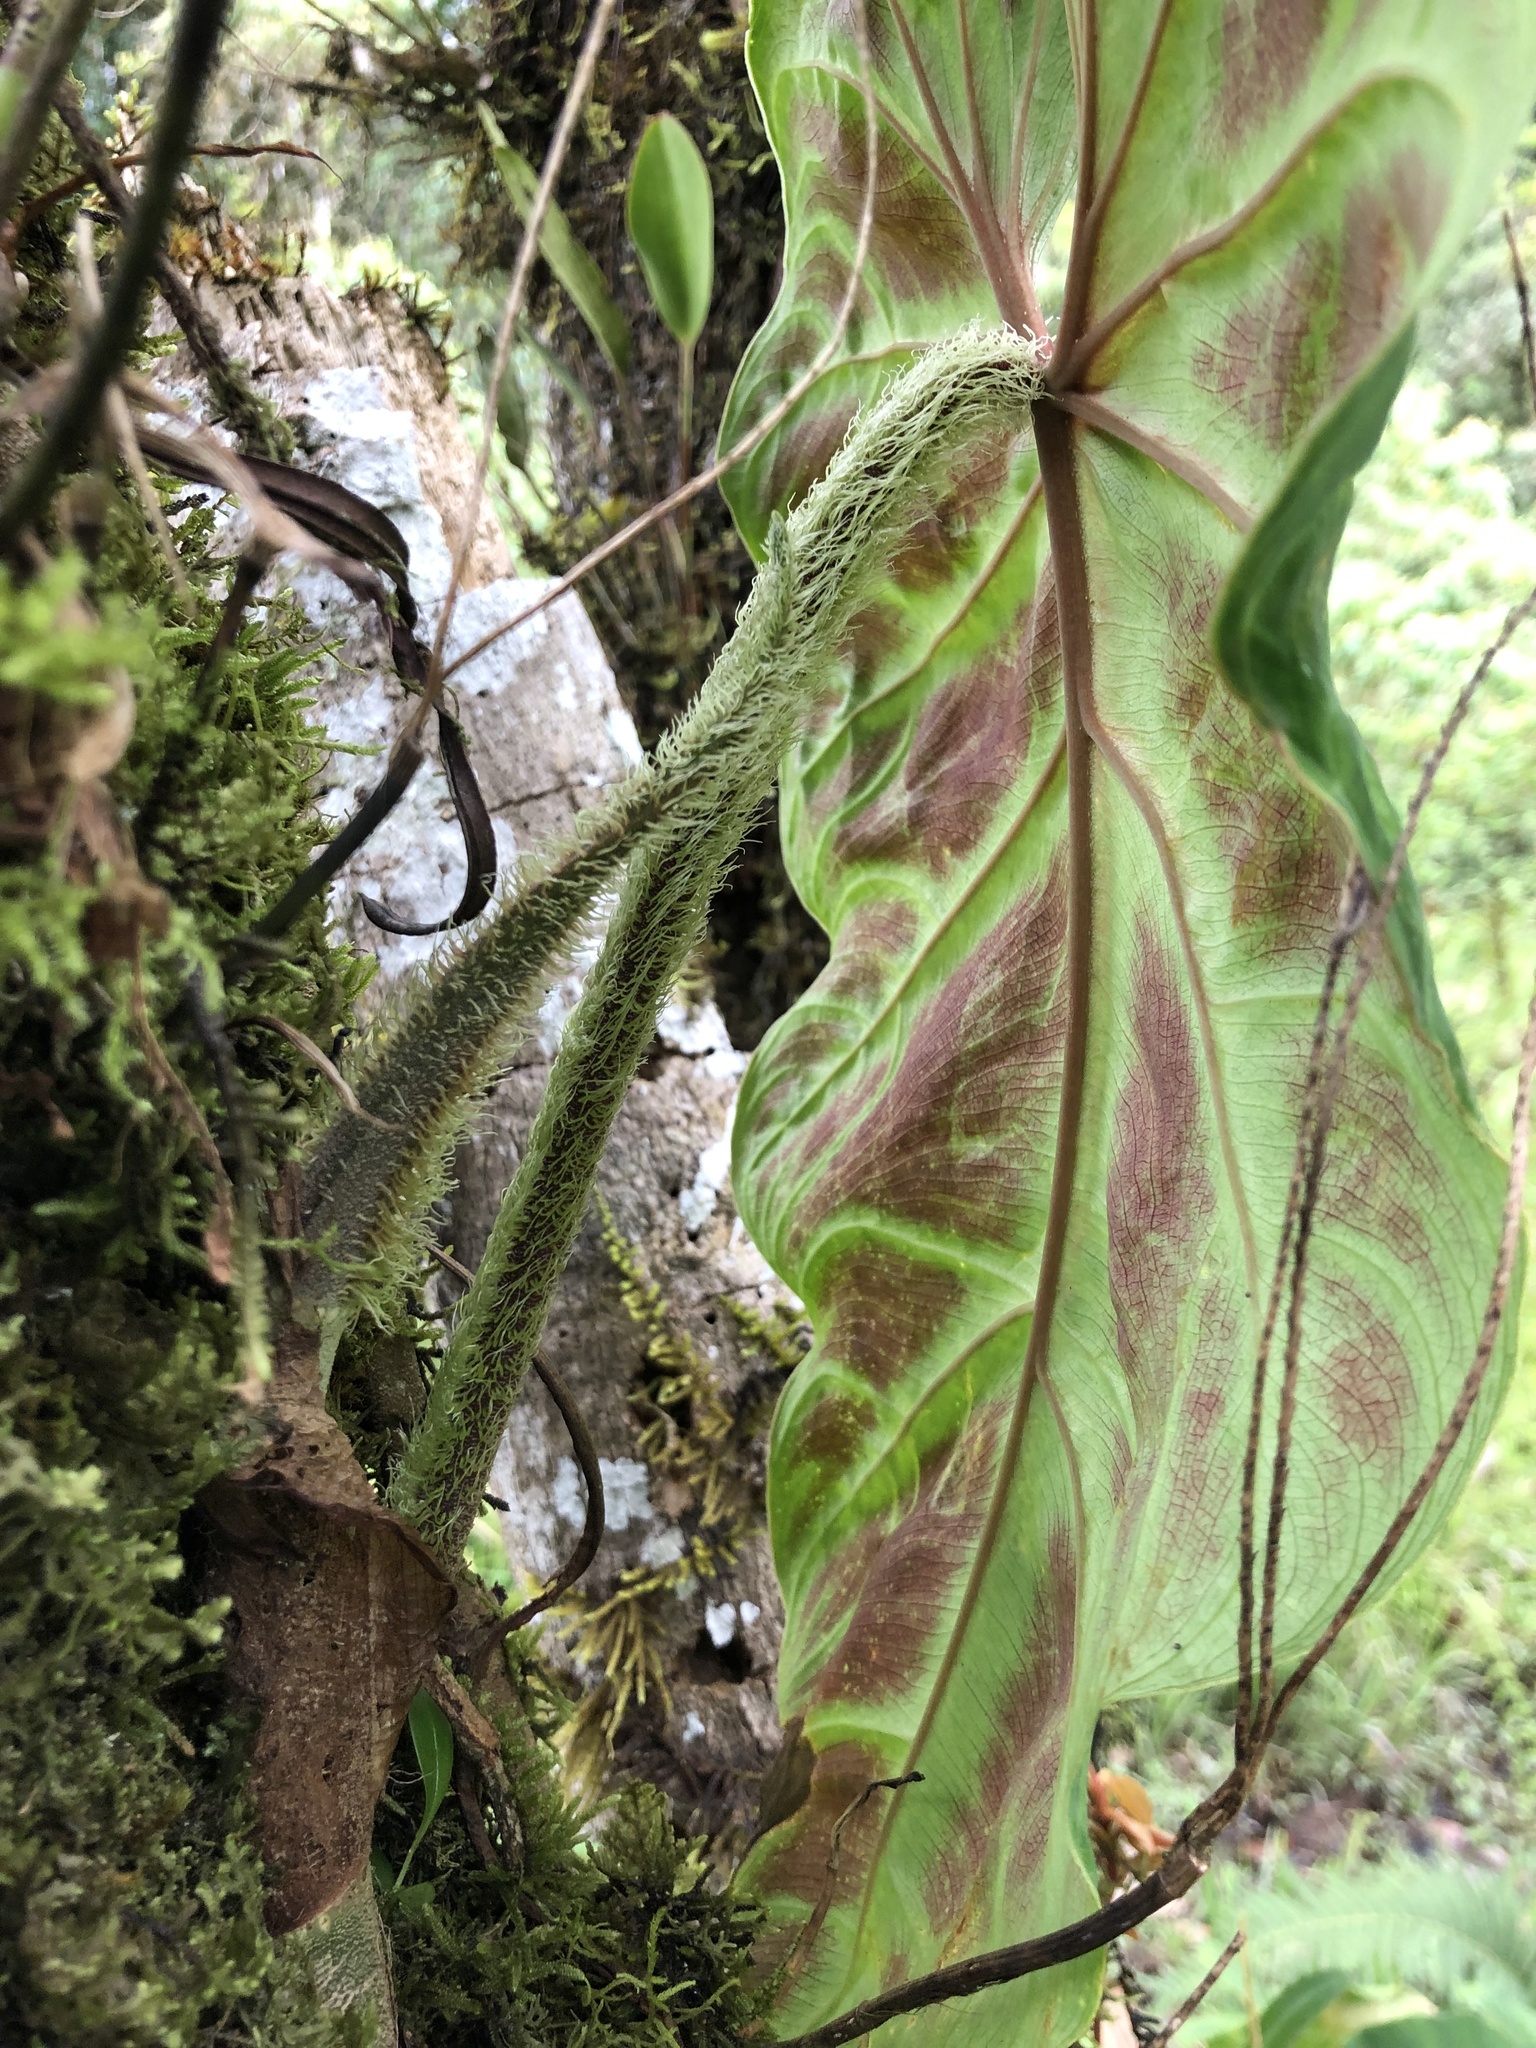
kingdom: Plantae
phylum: Tracheophyta
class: Liliopsida
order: Alismatales
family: Araceae
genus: Philodendron
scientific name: Philodendron verrucosum
